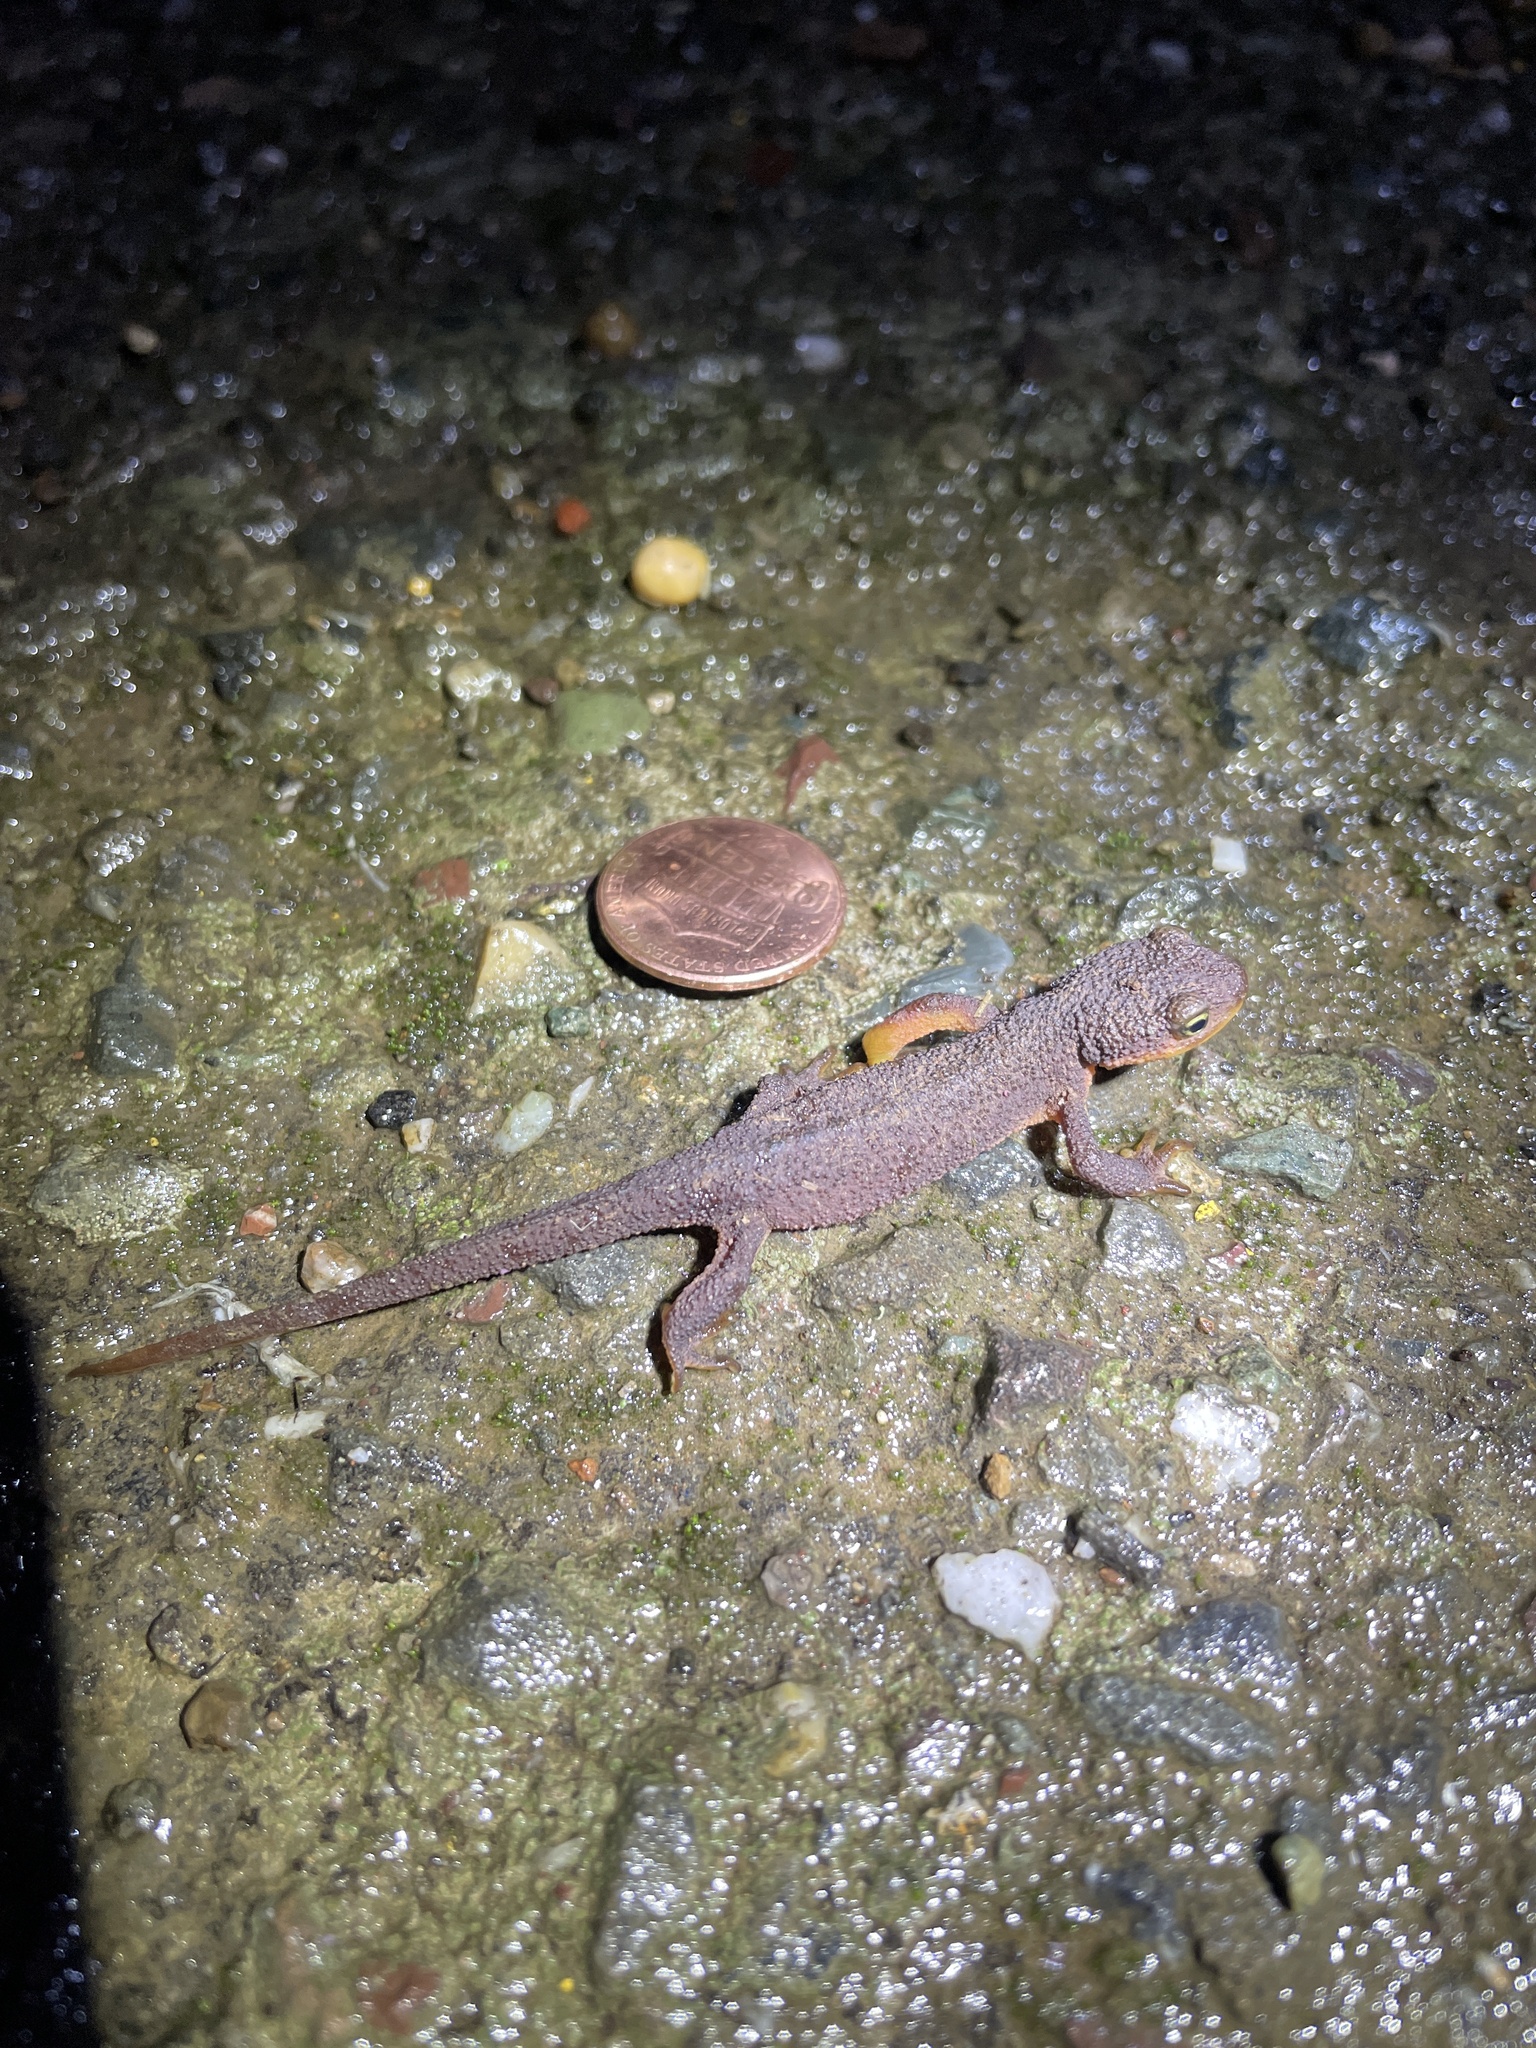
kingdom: Animalia
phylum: Chordata
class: Amphibia
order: Caudata
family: Salamandridae
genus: Taricha
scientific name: Taricha torosa
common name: California newt
